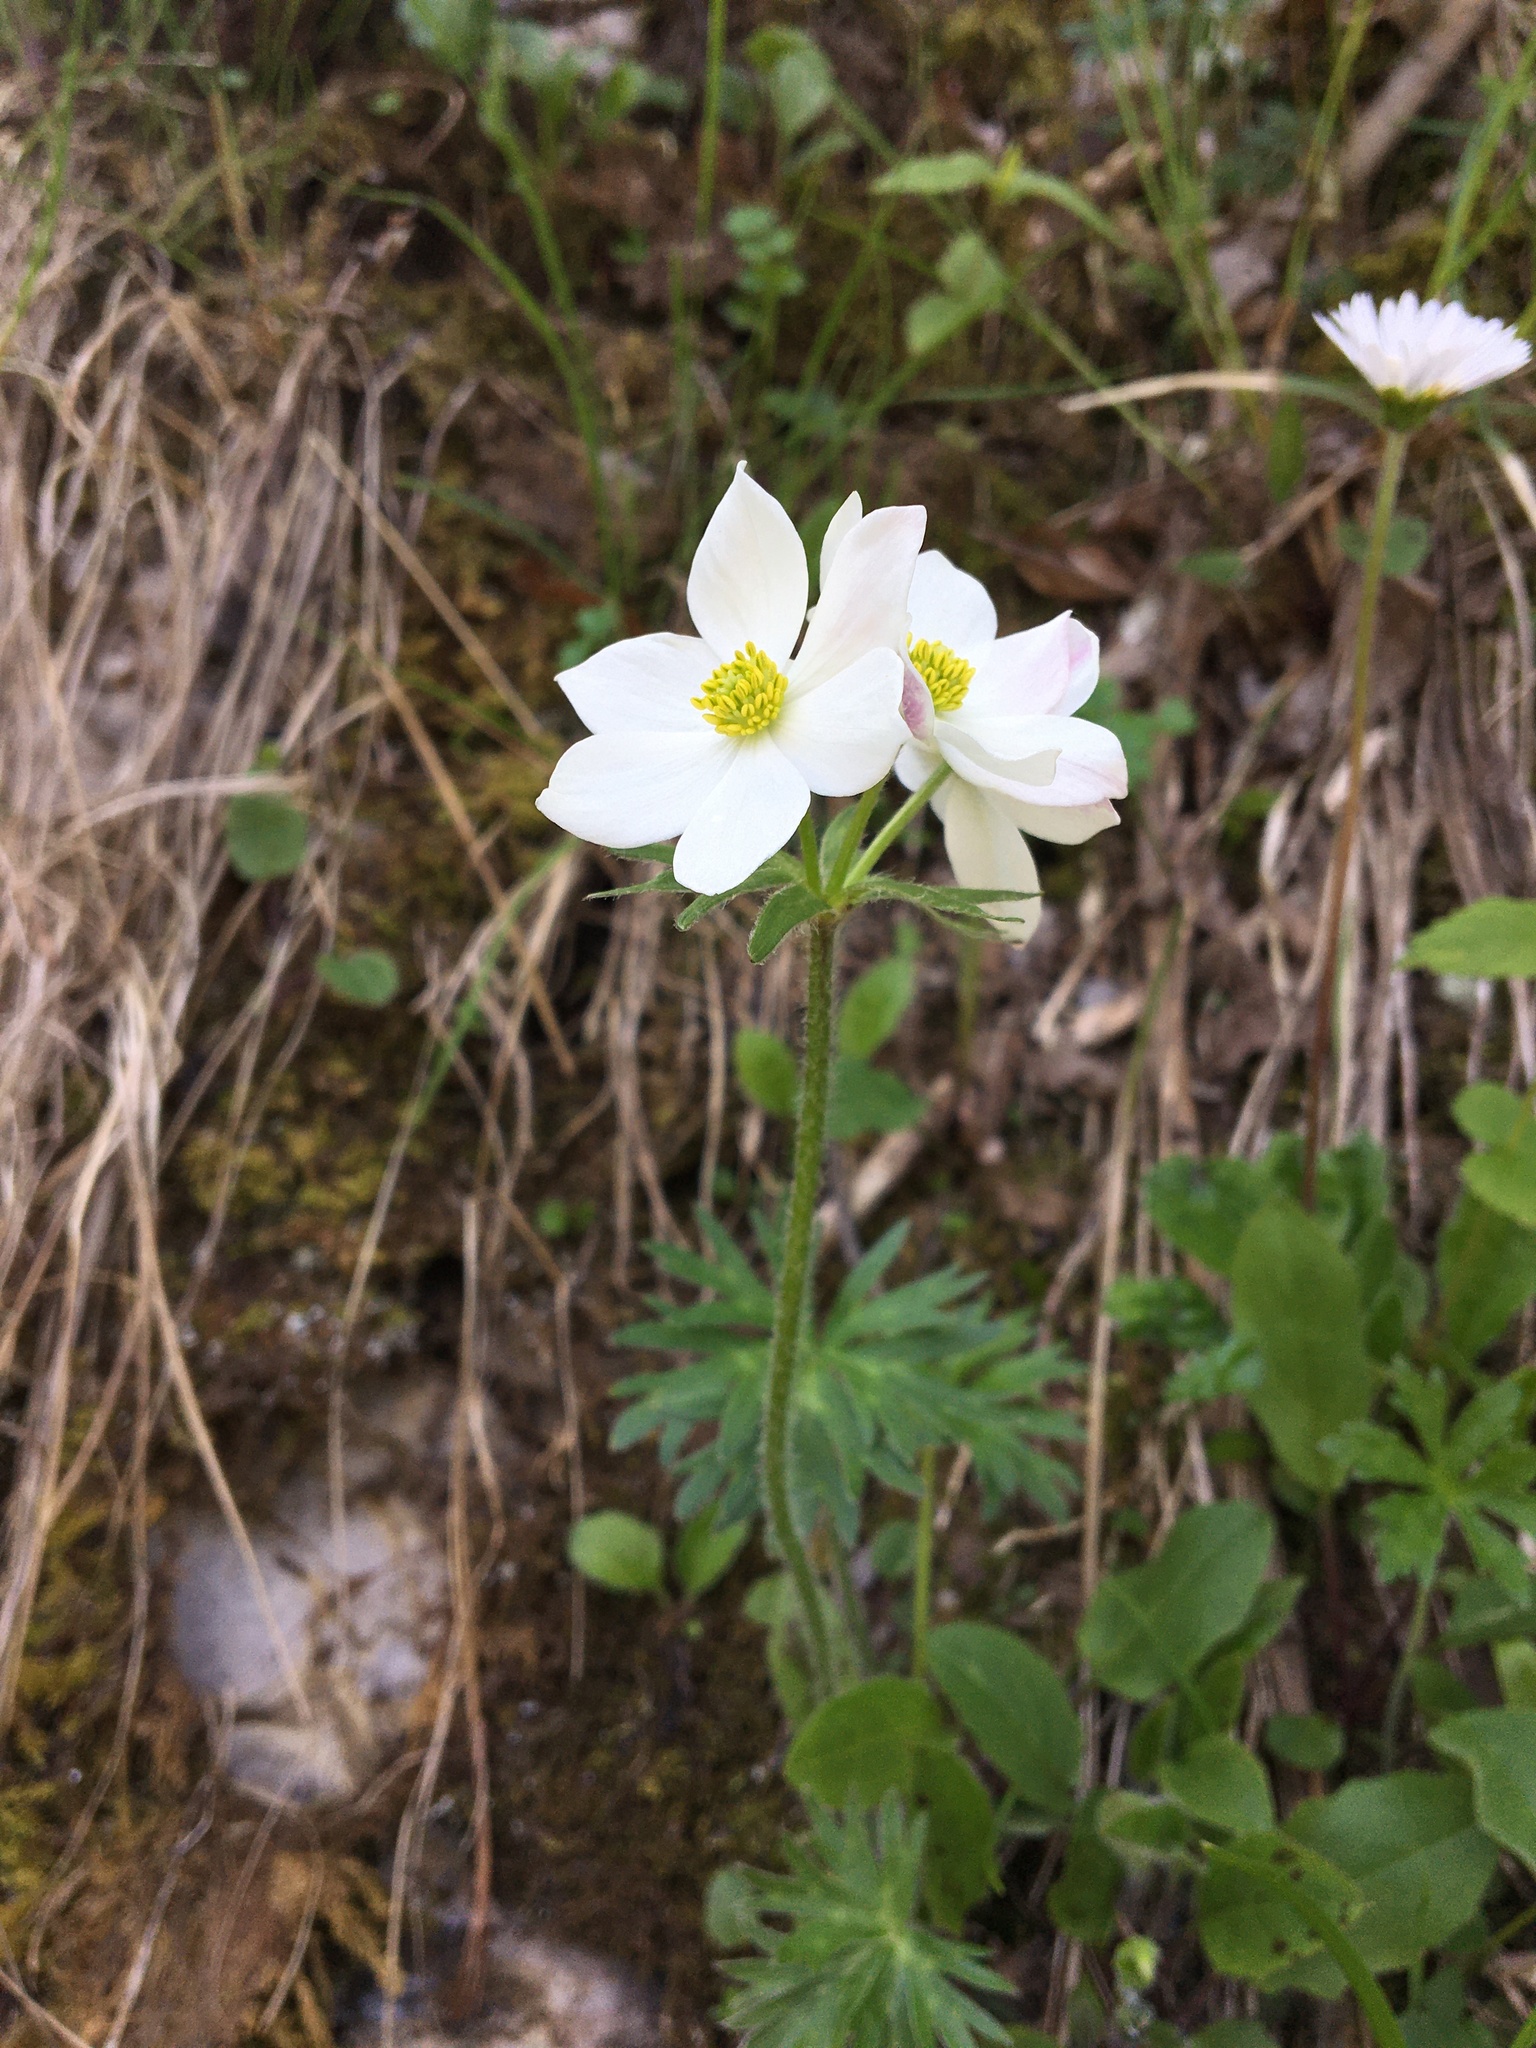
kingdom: Plantae
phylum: Tracheophyta
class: Magnoliopsida
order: Ranunculales
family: Ranunculaceae
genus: Anemonastrum
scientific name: Anemonastrum narcissiflorum
